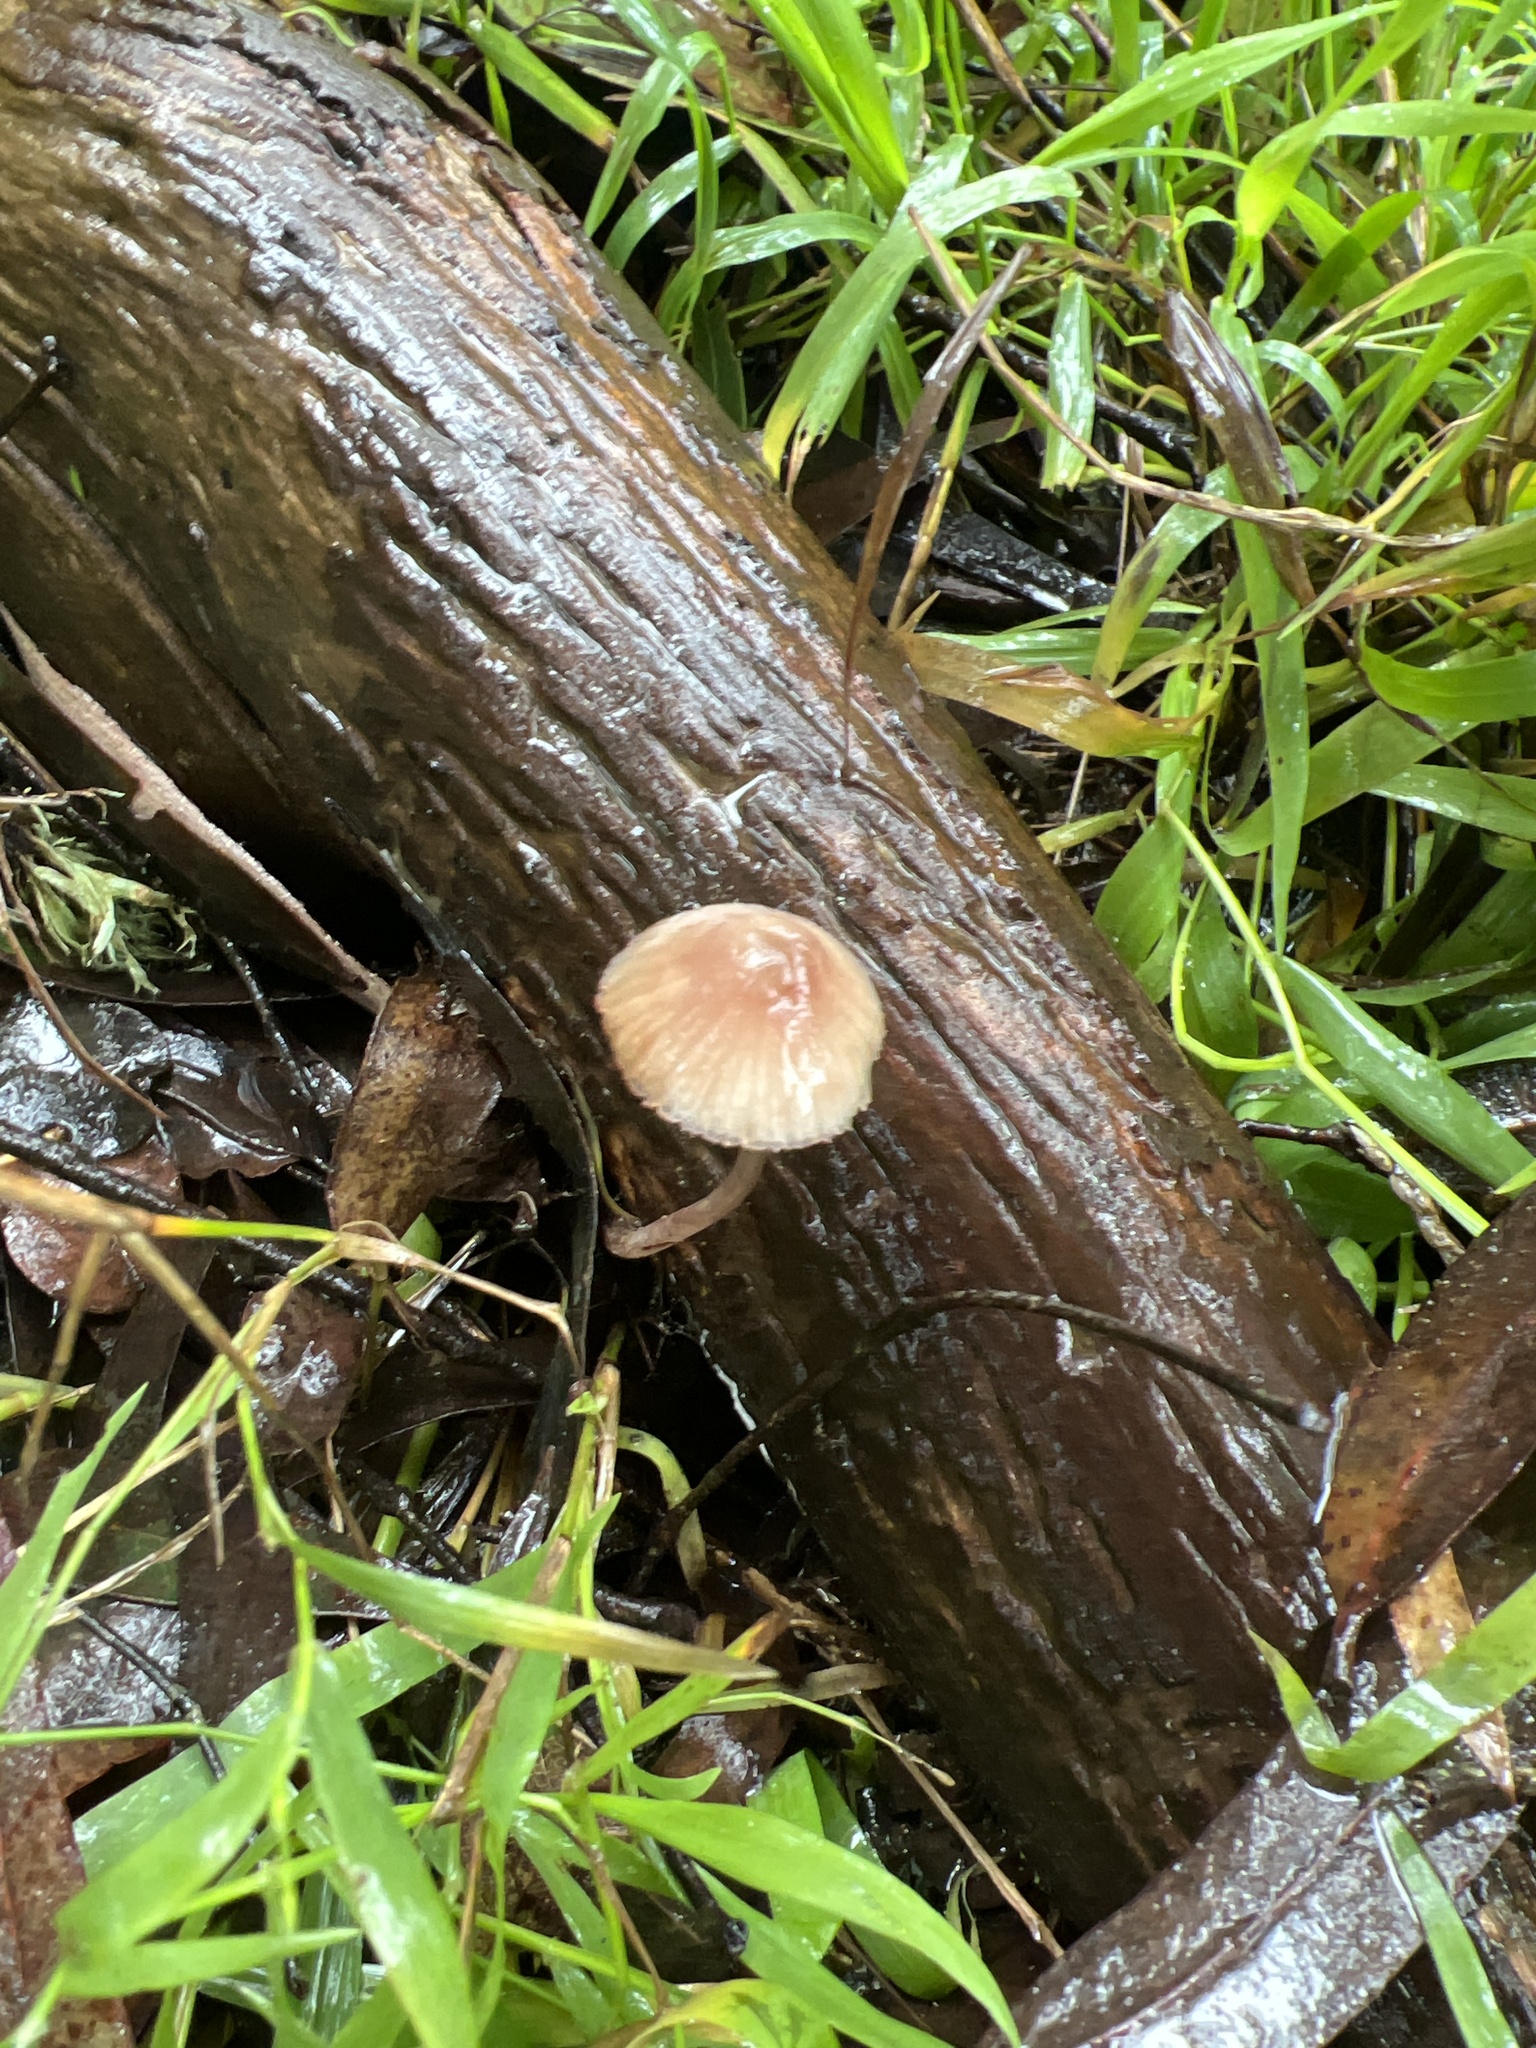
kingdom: Fungi
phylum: Basidiomycota
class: Agaricomycetes
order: Agaricales
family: Mycenaceae
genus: Mycena
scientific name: Mycena haematopus
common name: Burgundydrop bonnet
